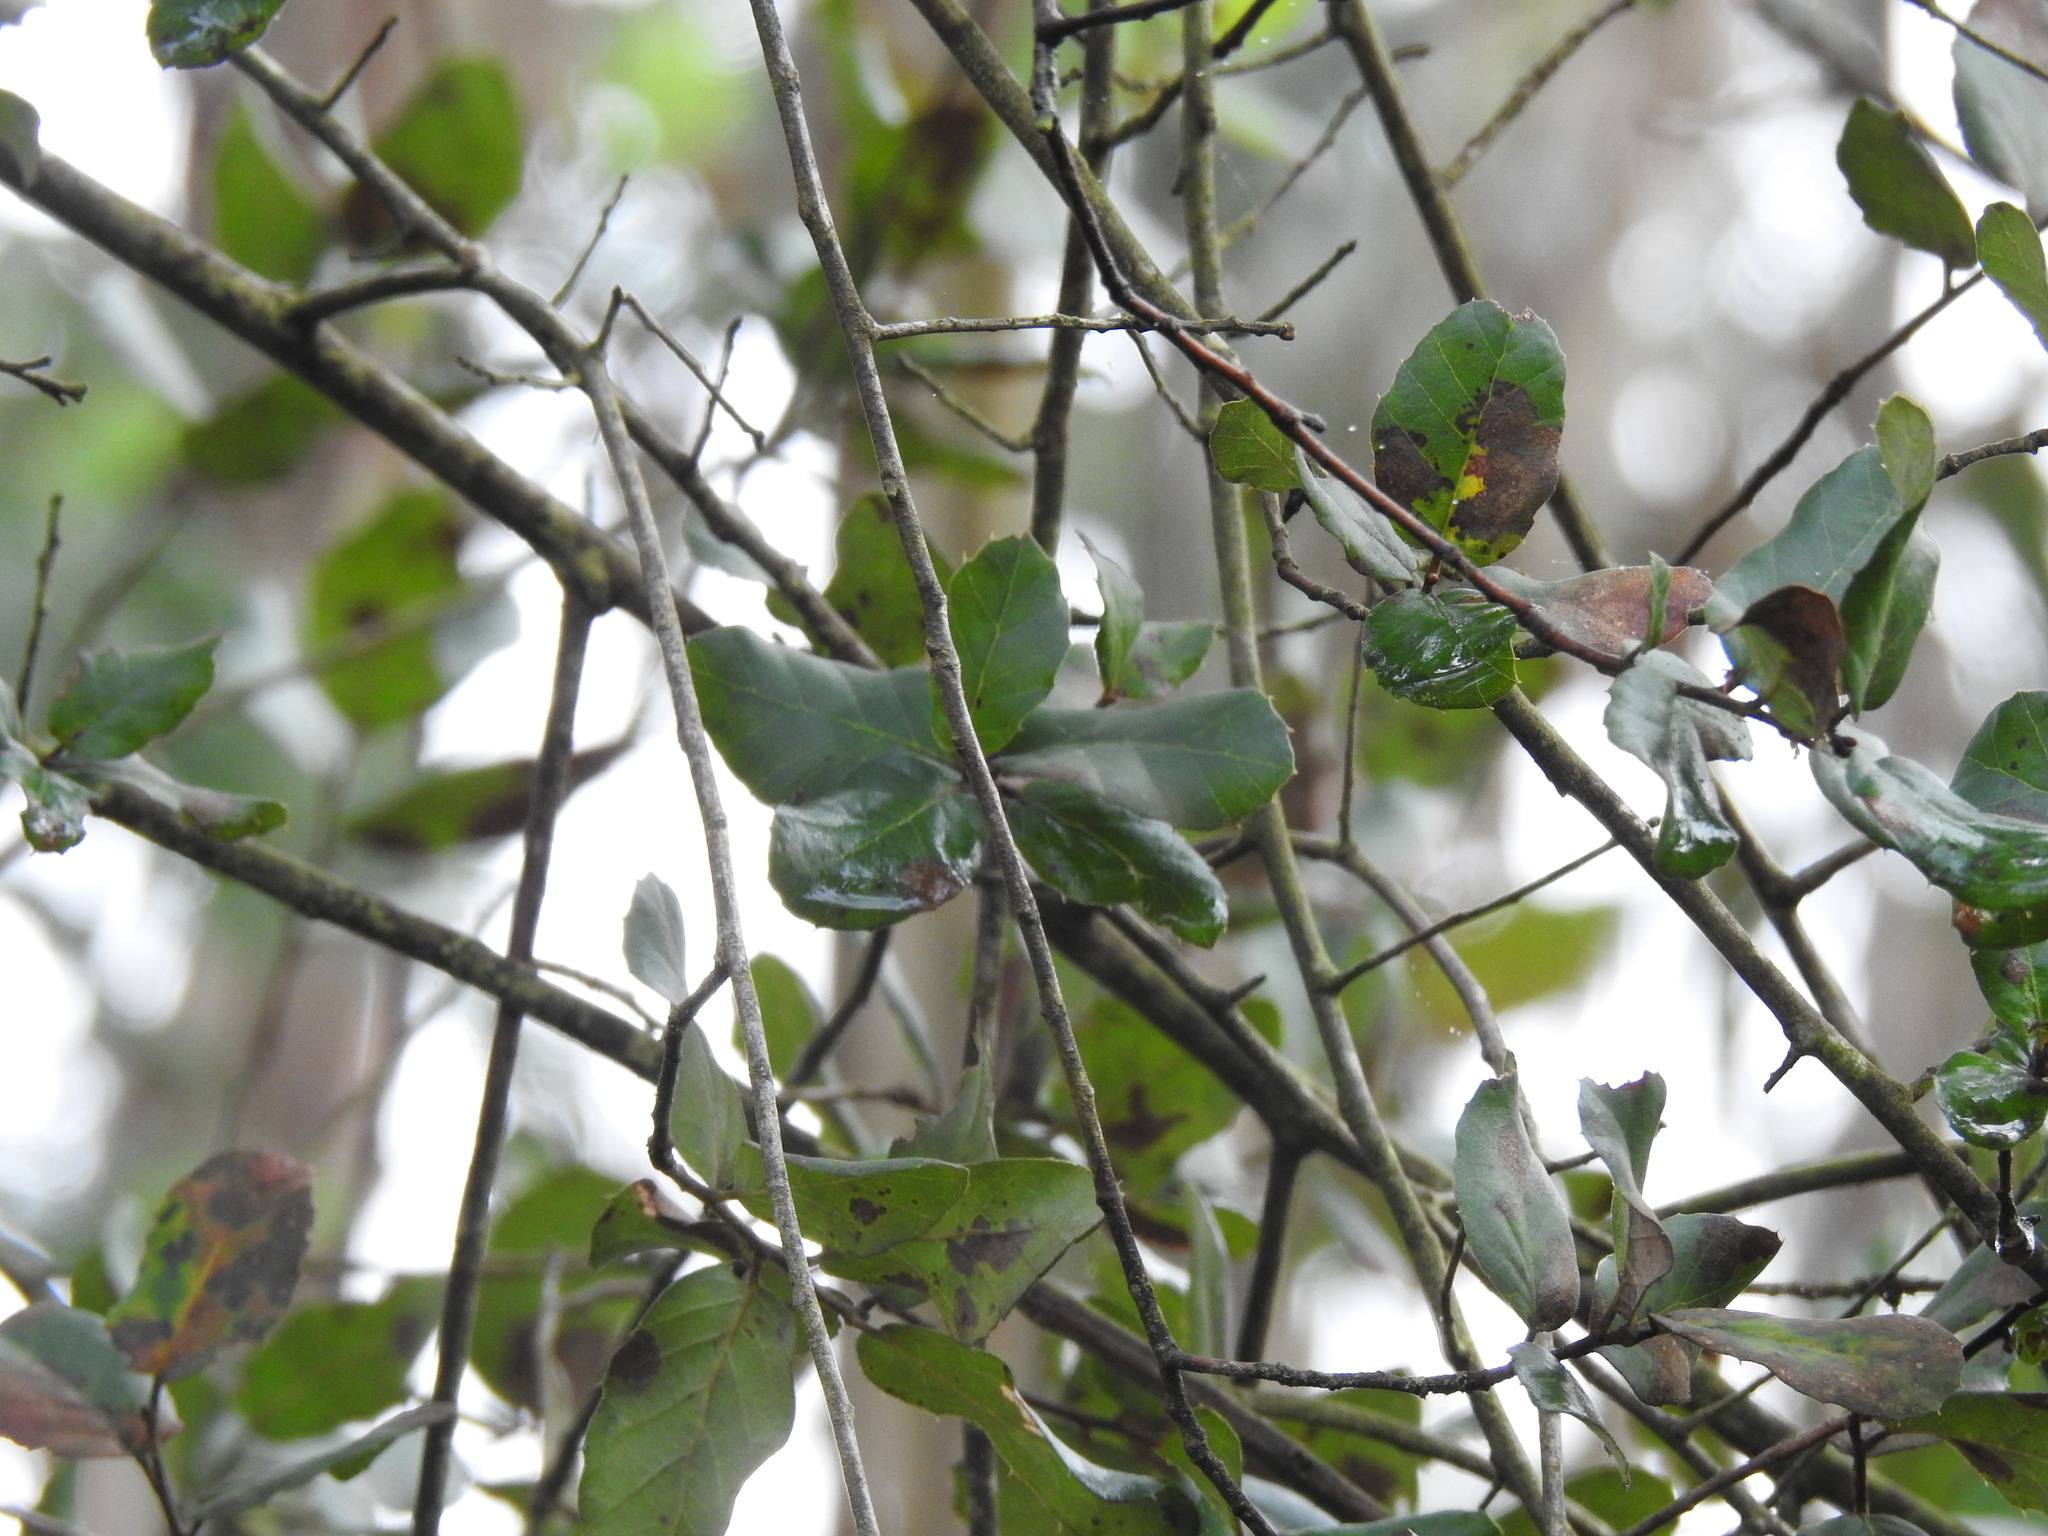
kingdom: Plantae
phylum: Tracheophyta
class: Magnoliopsida
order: Fagales
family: Fagaceae
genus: Quercus
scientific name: Quercus suber
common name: Cork oak
